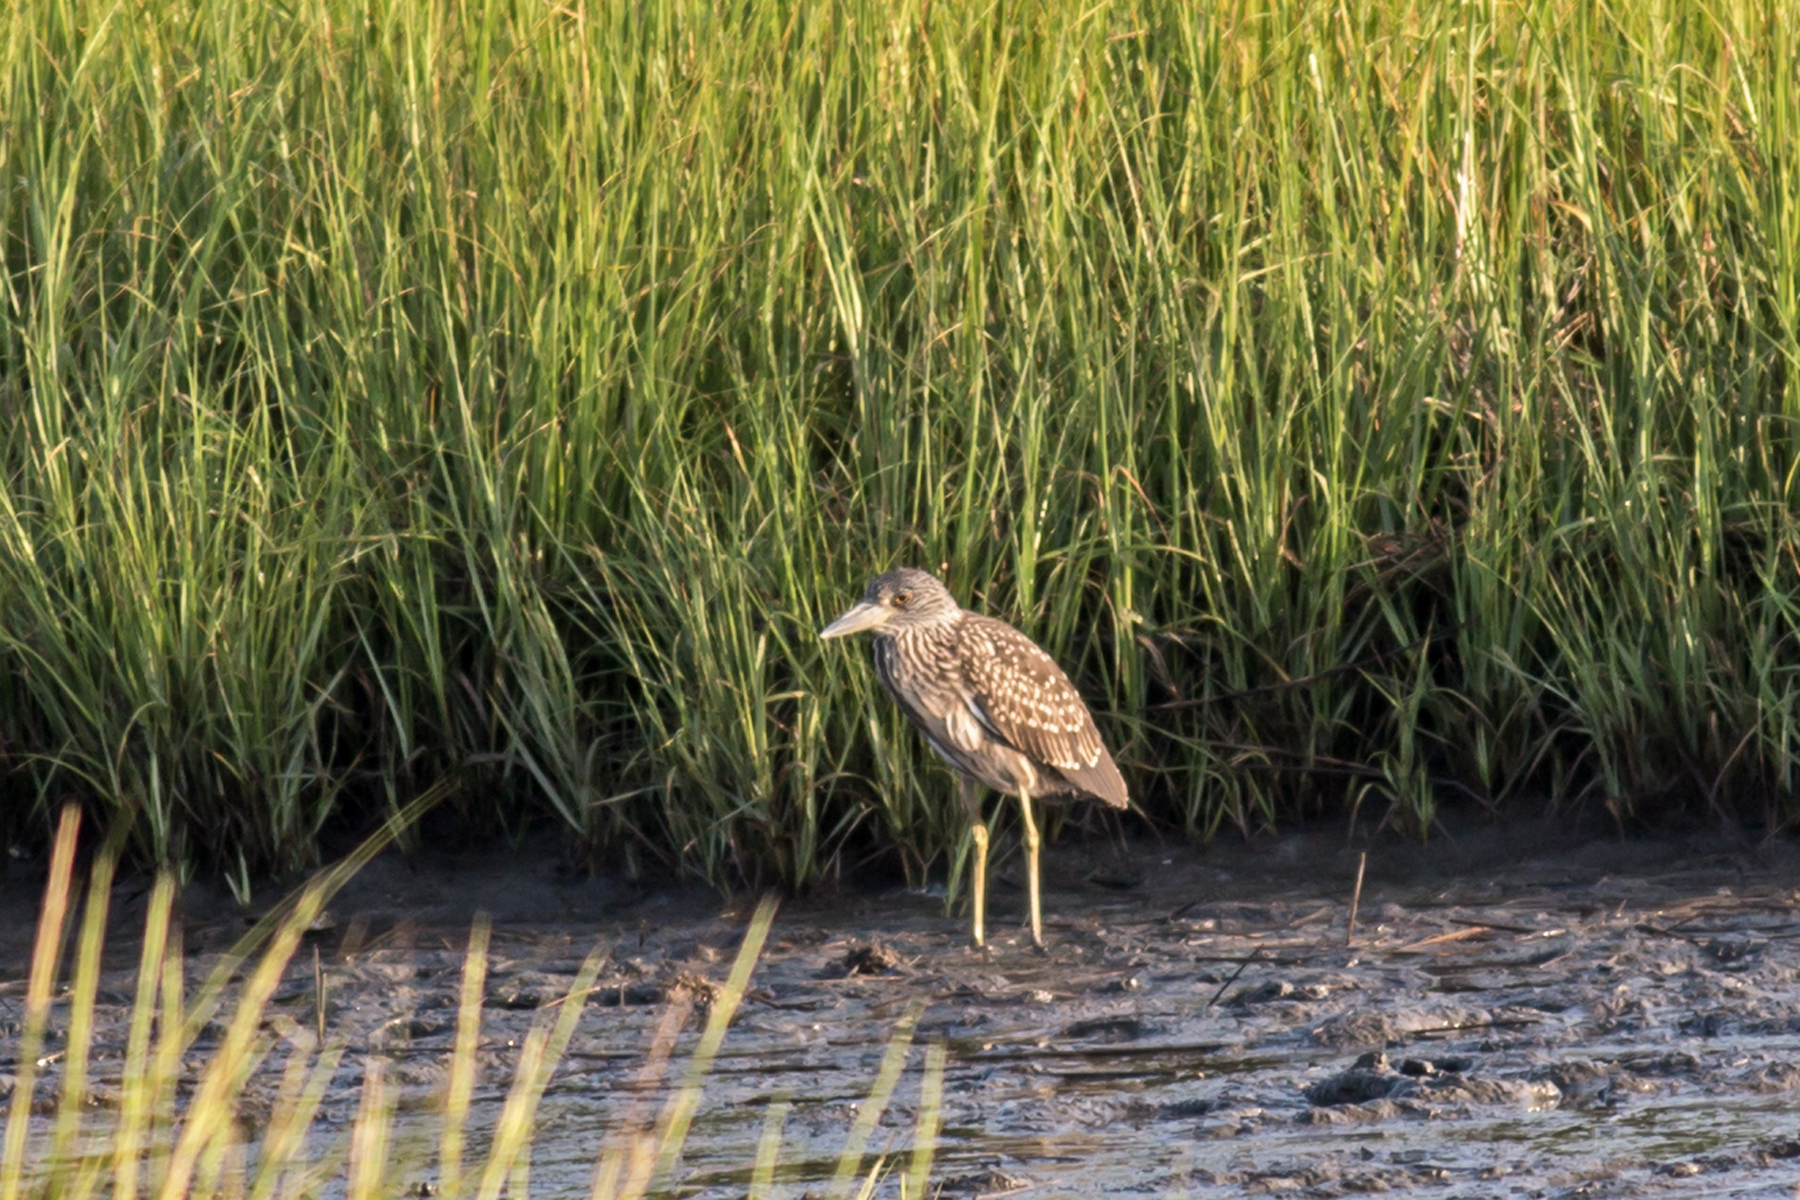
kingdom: Animalia
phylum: Chordata
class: Aves
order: Pelecaniformes
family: Ardeidae
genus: Nyctanassa
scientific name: Nyctanassa violacea
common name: Yellow-crowned night heron
